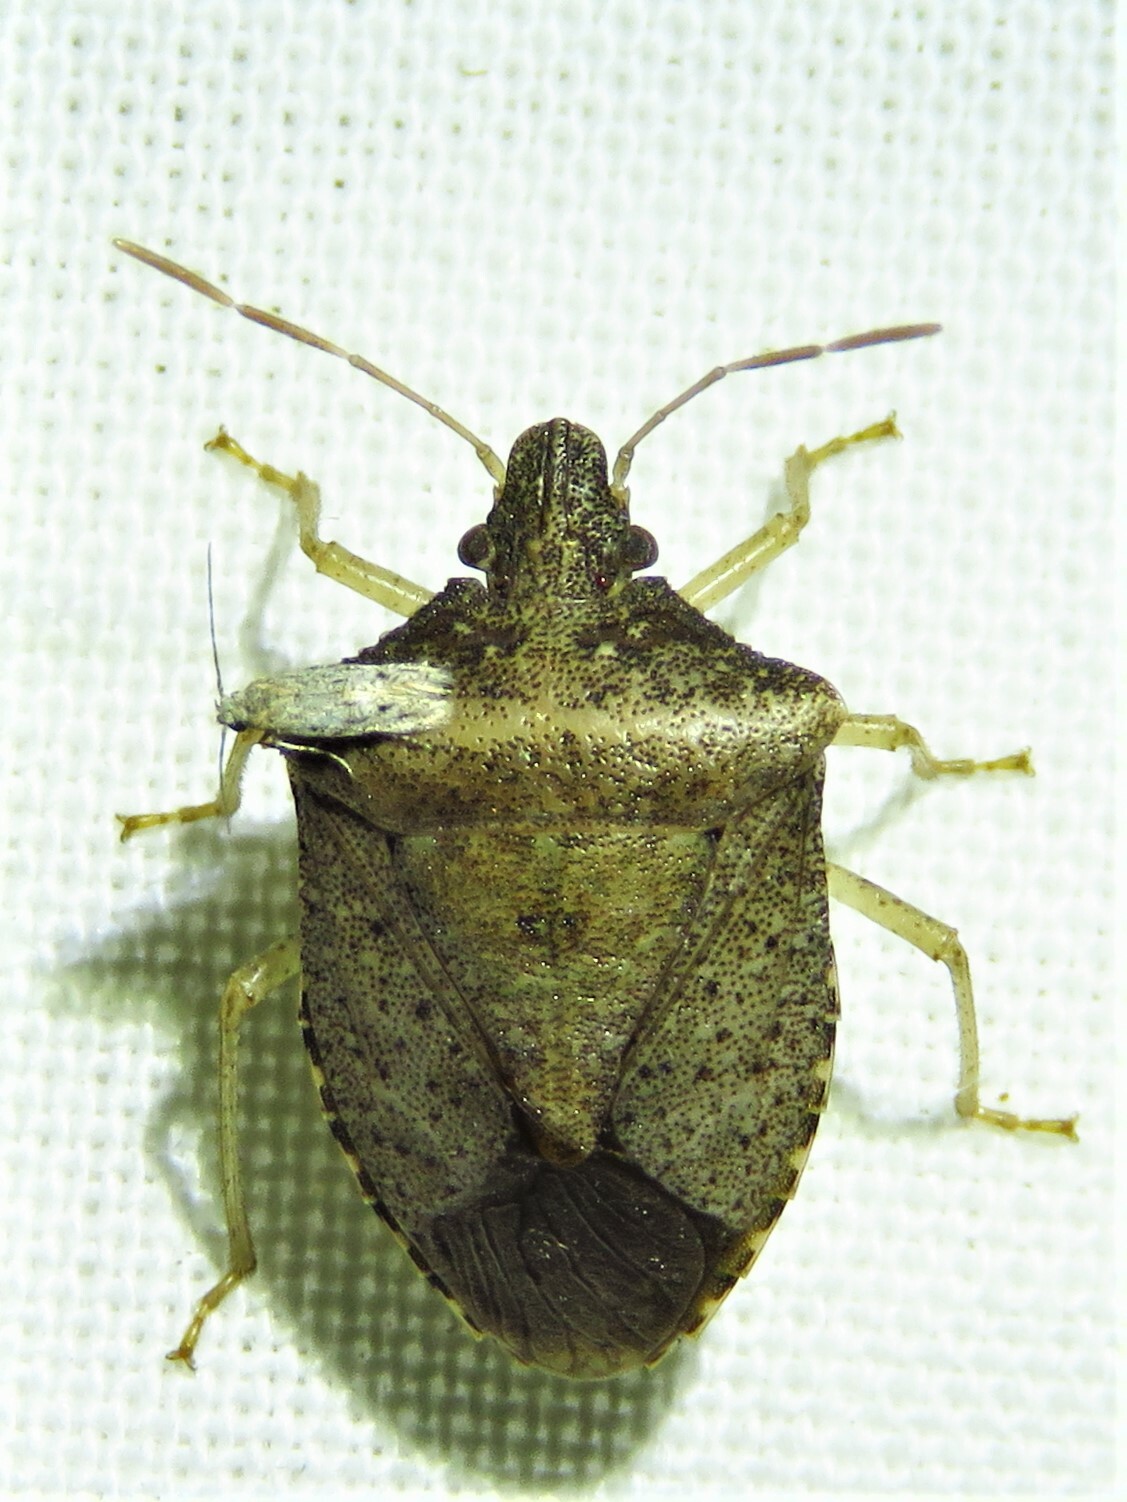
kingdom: Animalia
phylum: Arthropoda
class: Insecta
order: Hemiptera
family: Pentatomidae
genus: Euschistus
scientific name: Euschistus obscurus
